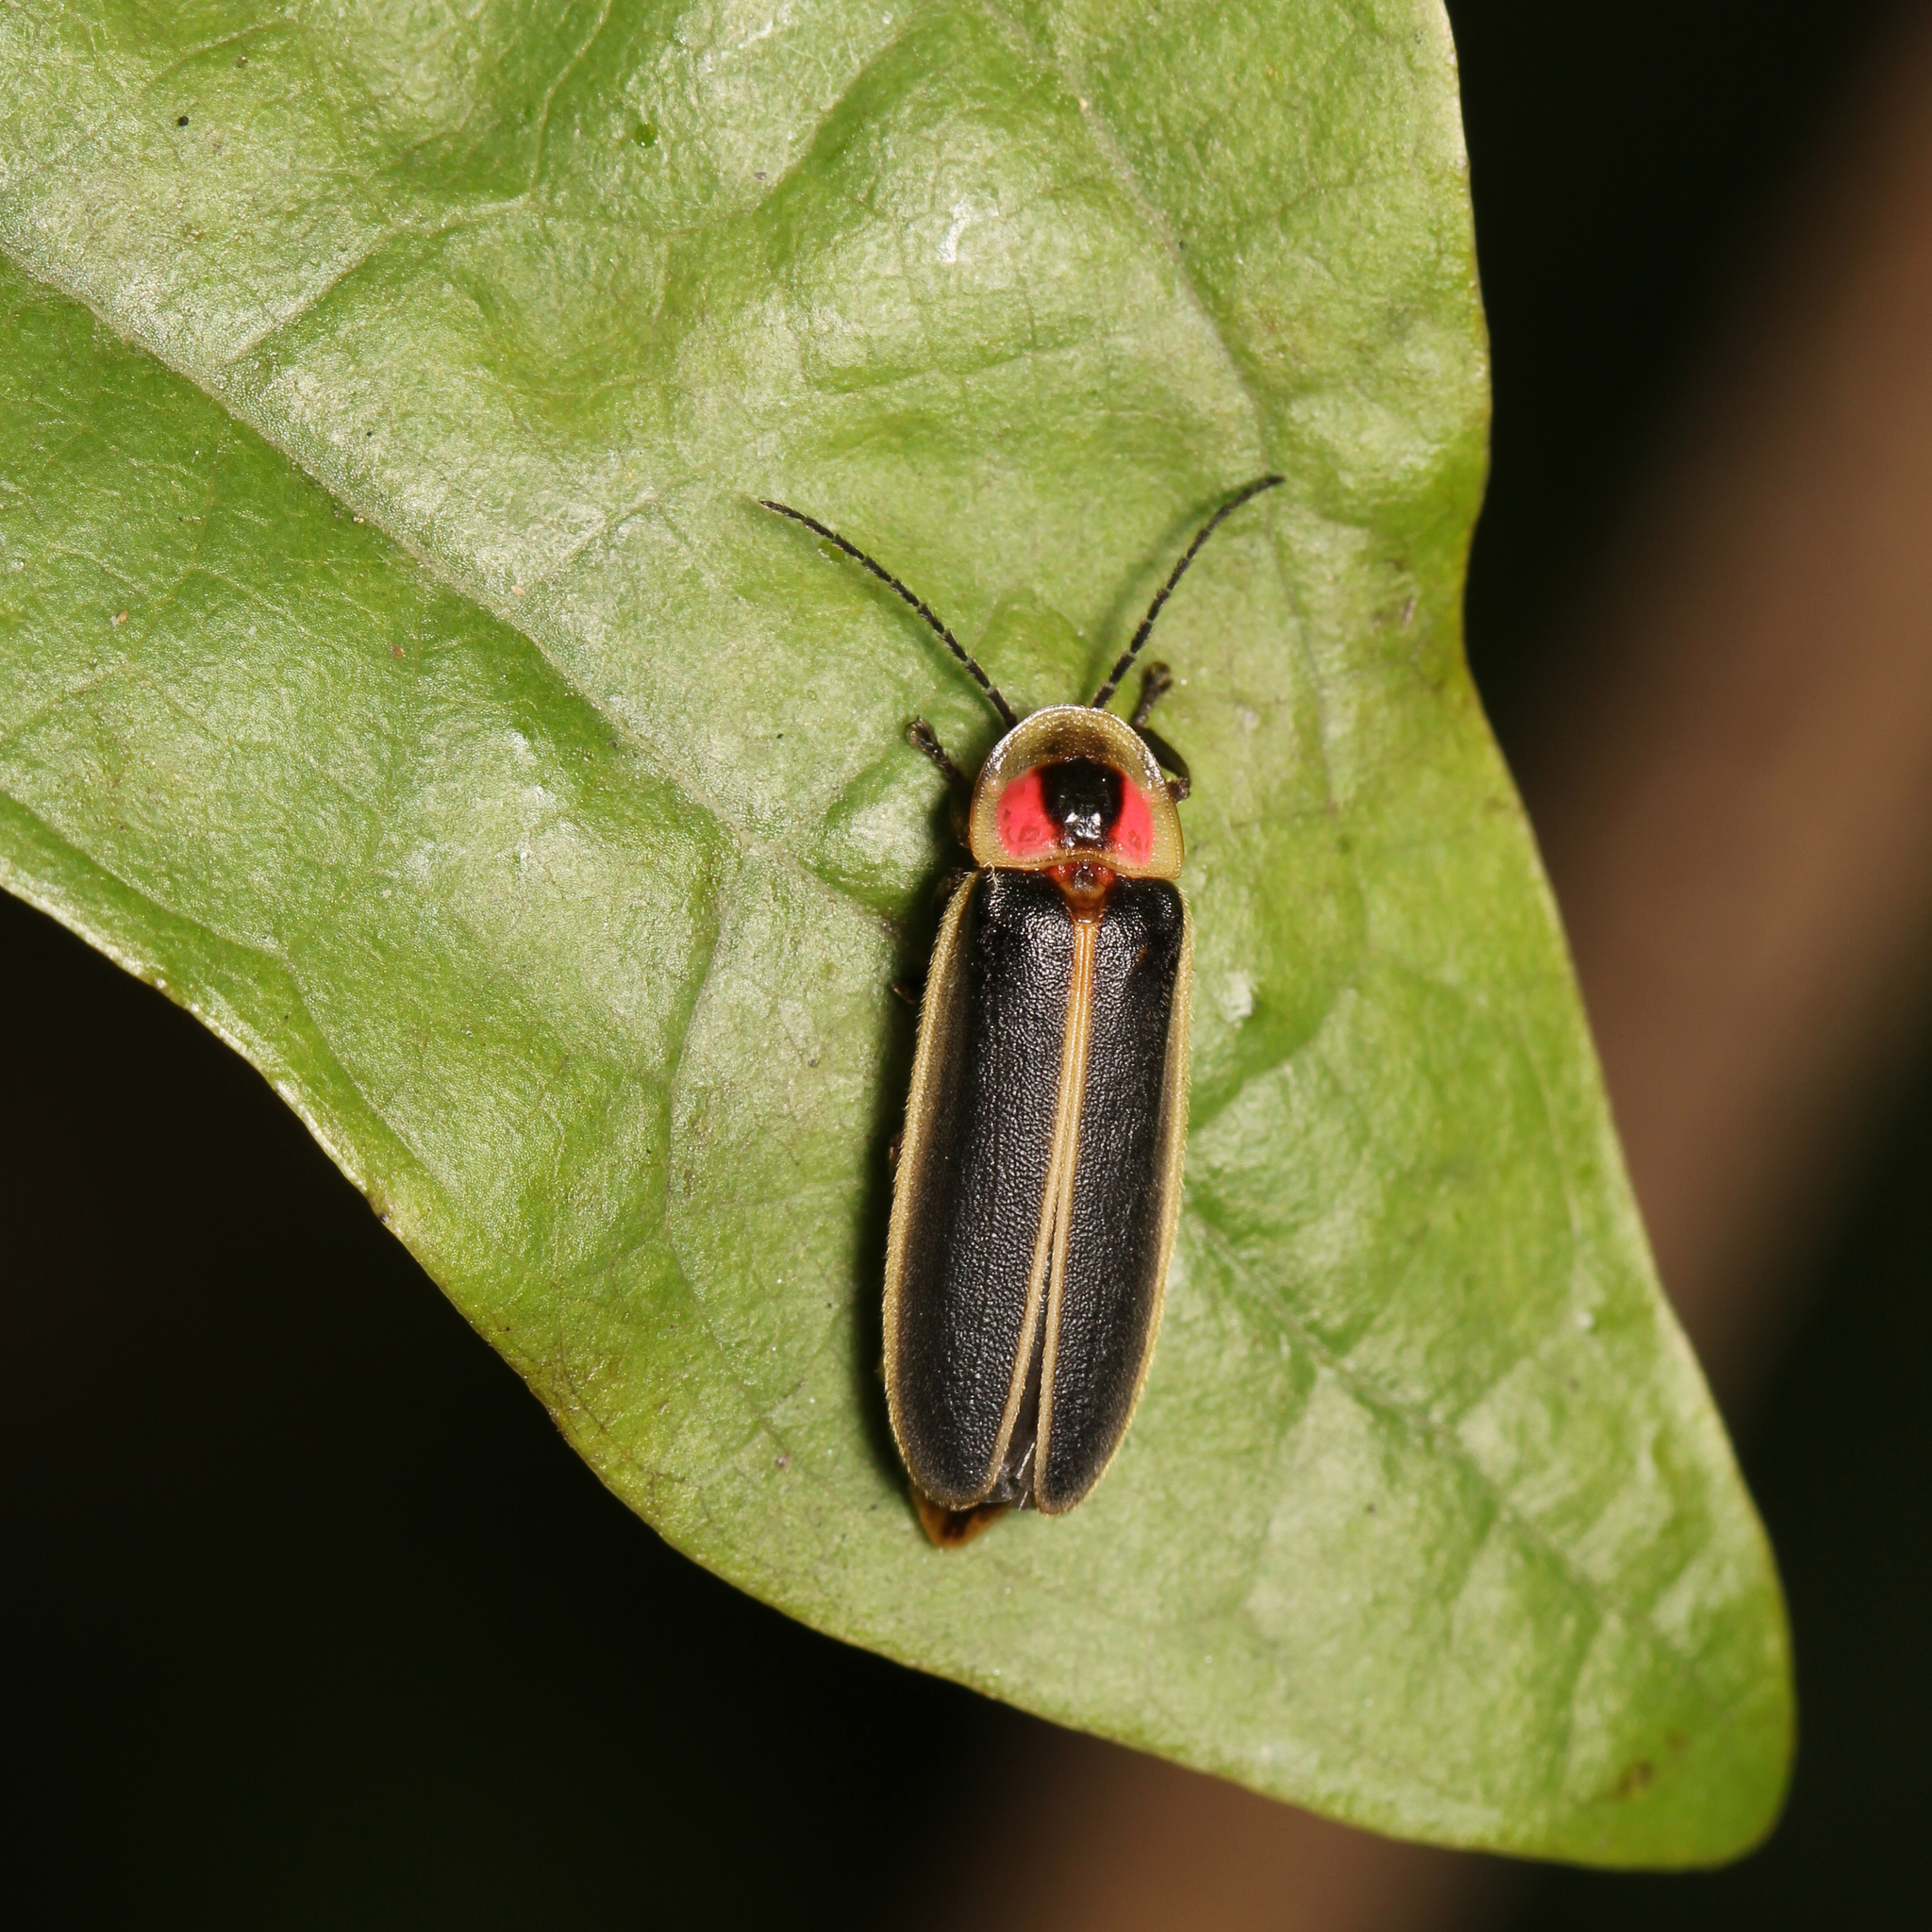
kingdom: Animalia
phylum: Arthropoda
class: Insecta
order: Coleoptera
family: Lampyridae
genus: Photinus
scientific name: Photinus pyralis
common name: Big dipper firefly
